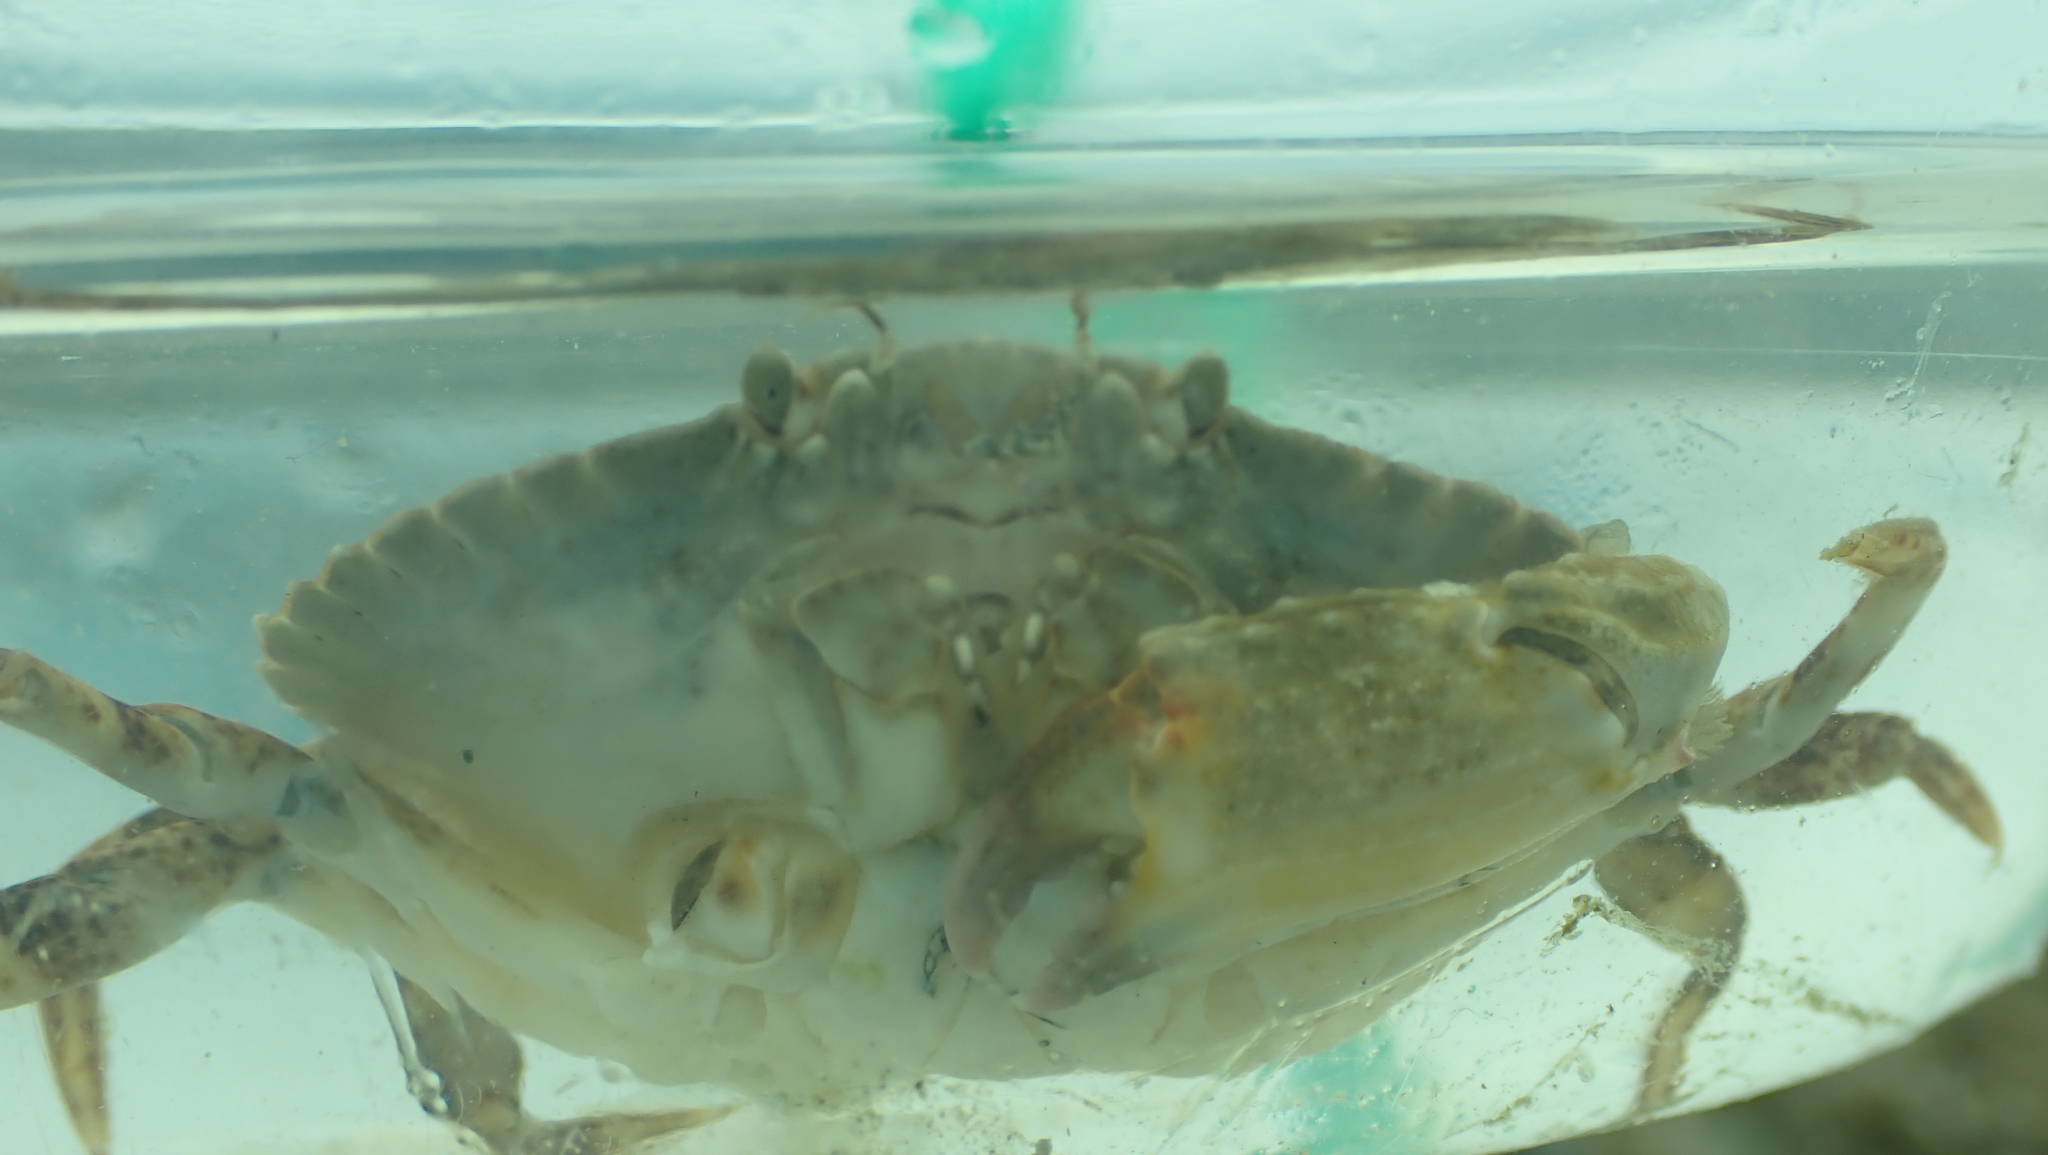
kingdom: Animalia
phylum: Arthropoda
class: Malacostraca
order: Decapoda
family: Cancridae
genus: Cancer
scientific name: Cancer productus
